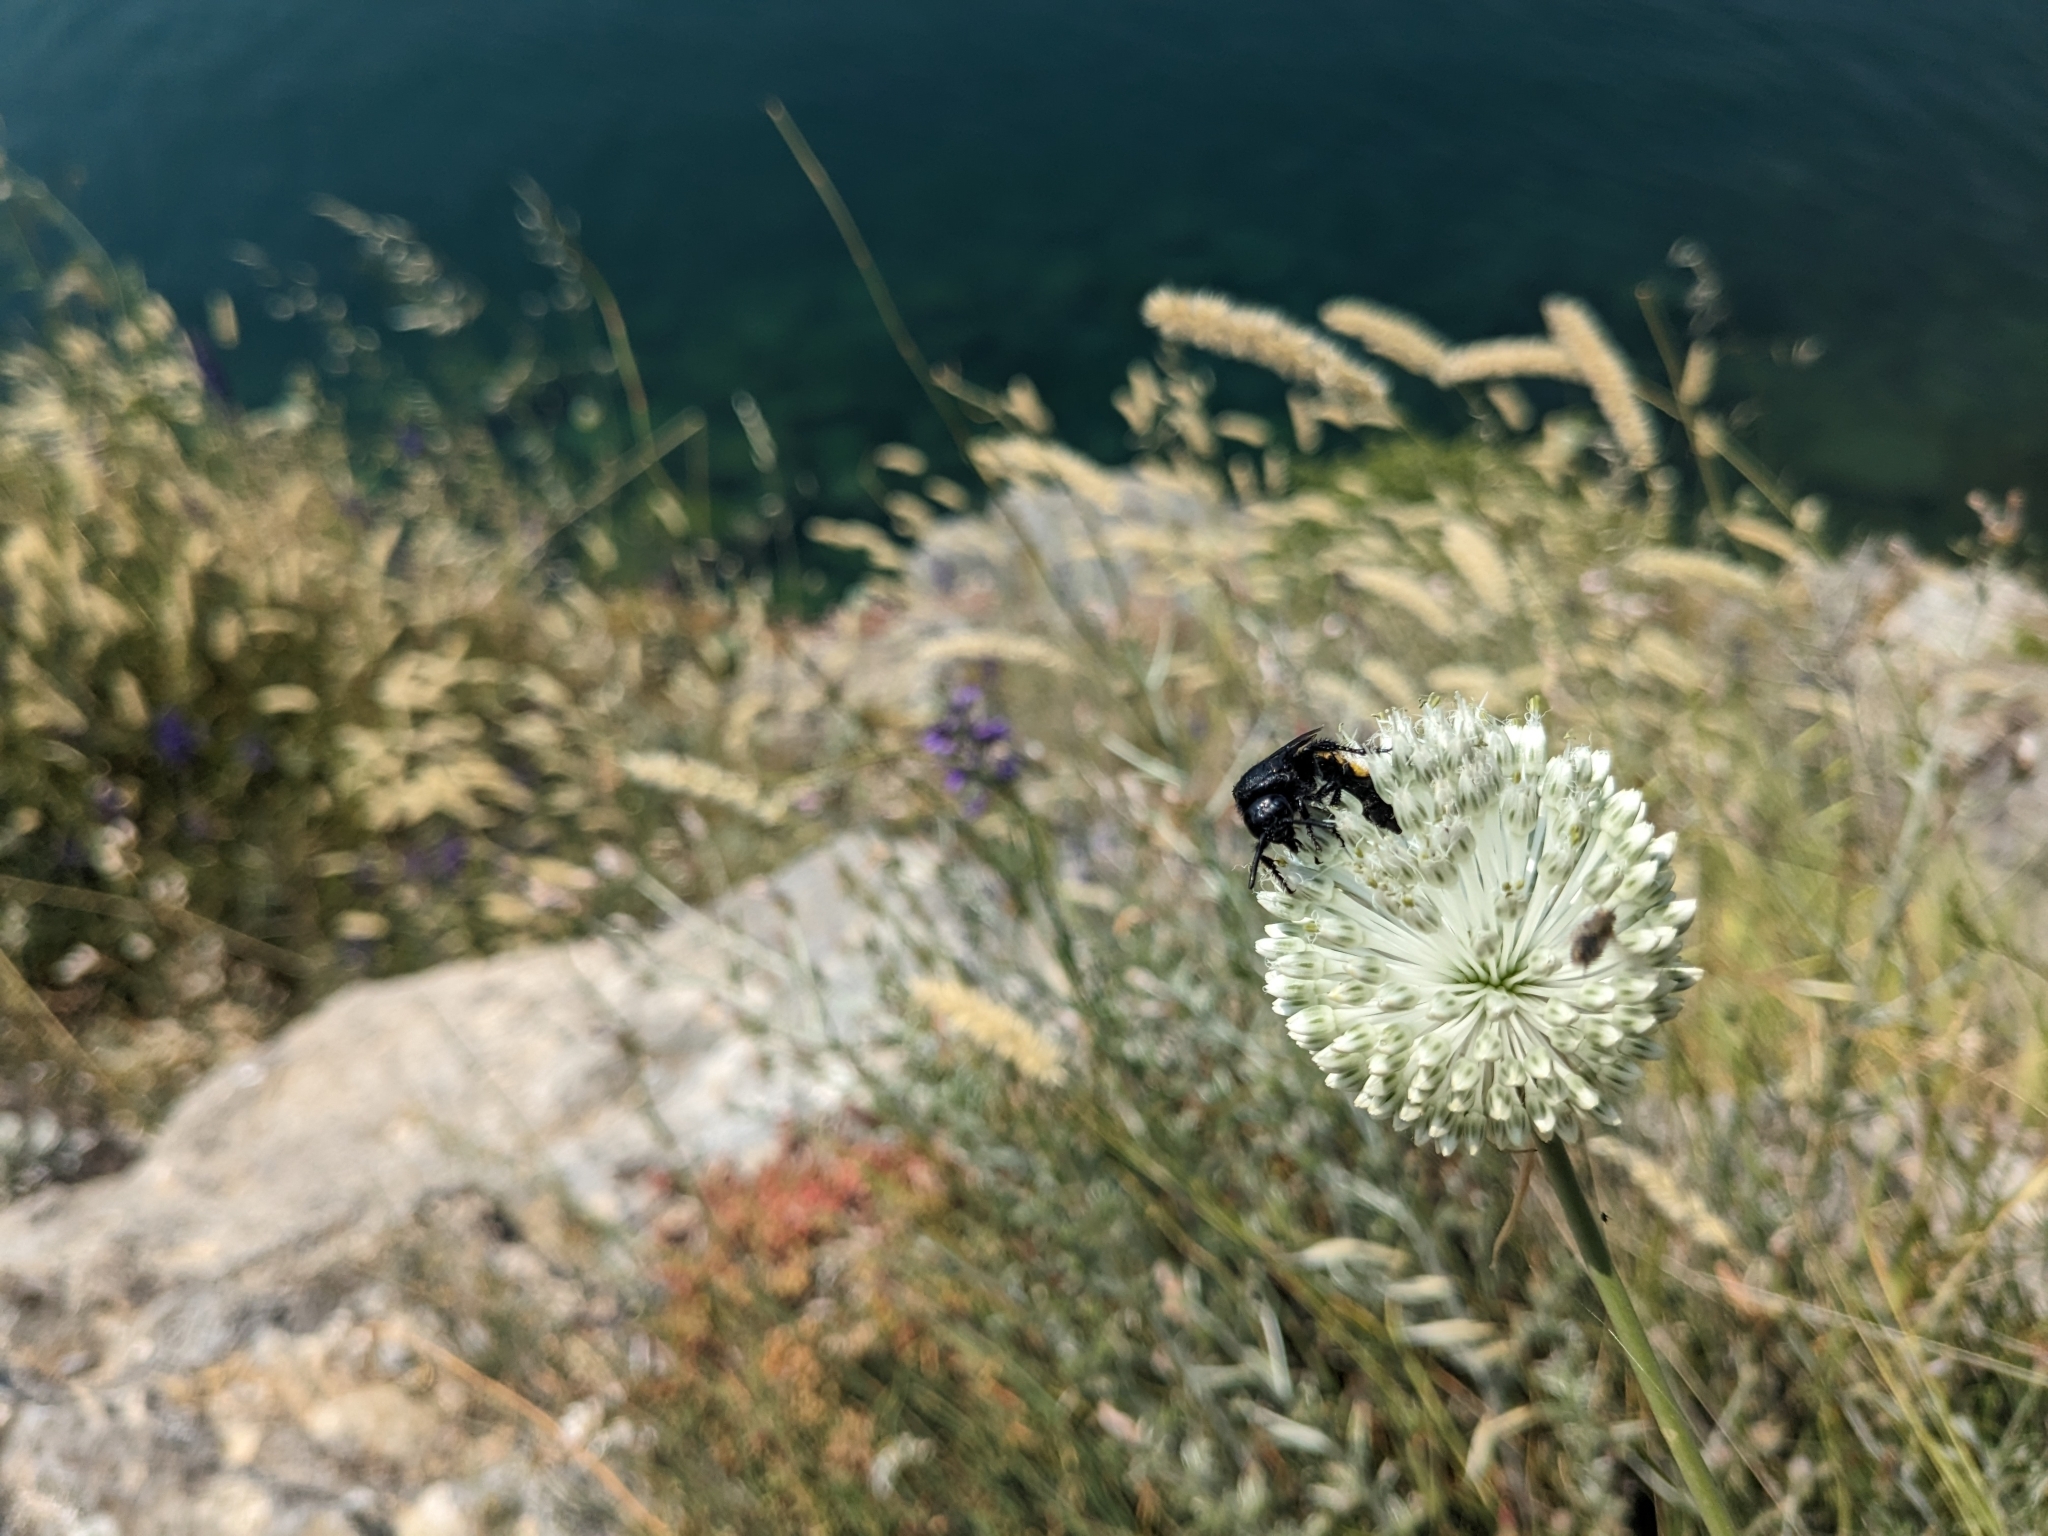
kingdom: Plantae
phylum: Tracheophyta
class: Liliopsida
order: Asparagales
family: Amaryllidaceae
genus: Allium
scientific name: Allium guttatum
